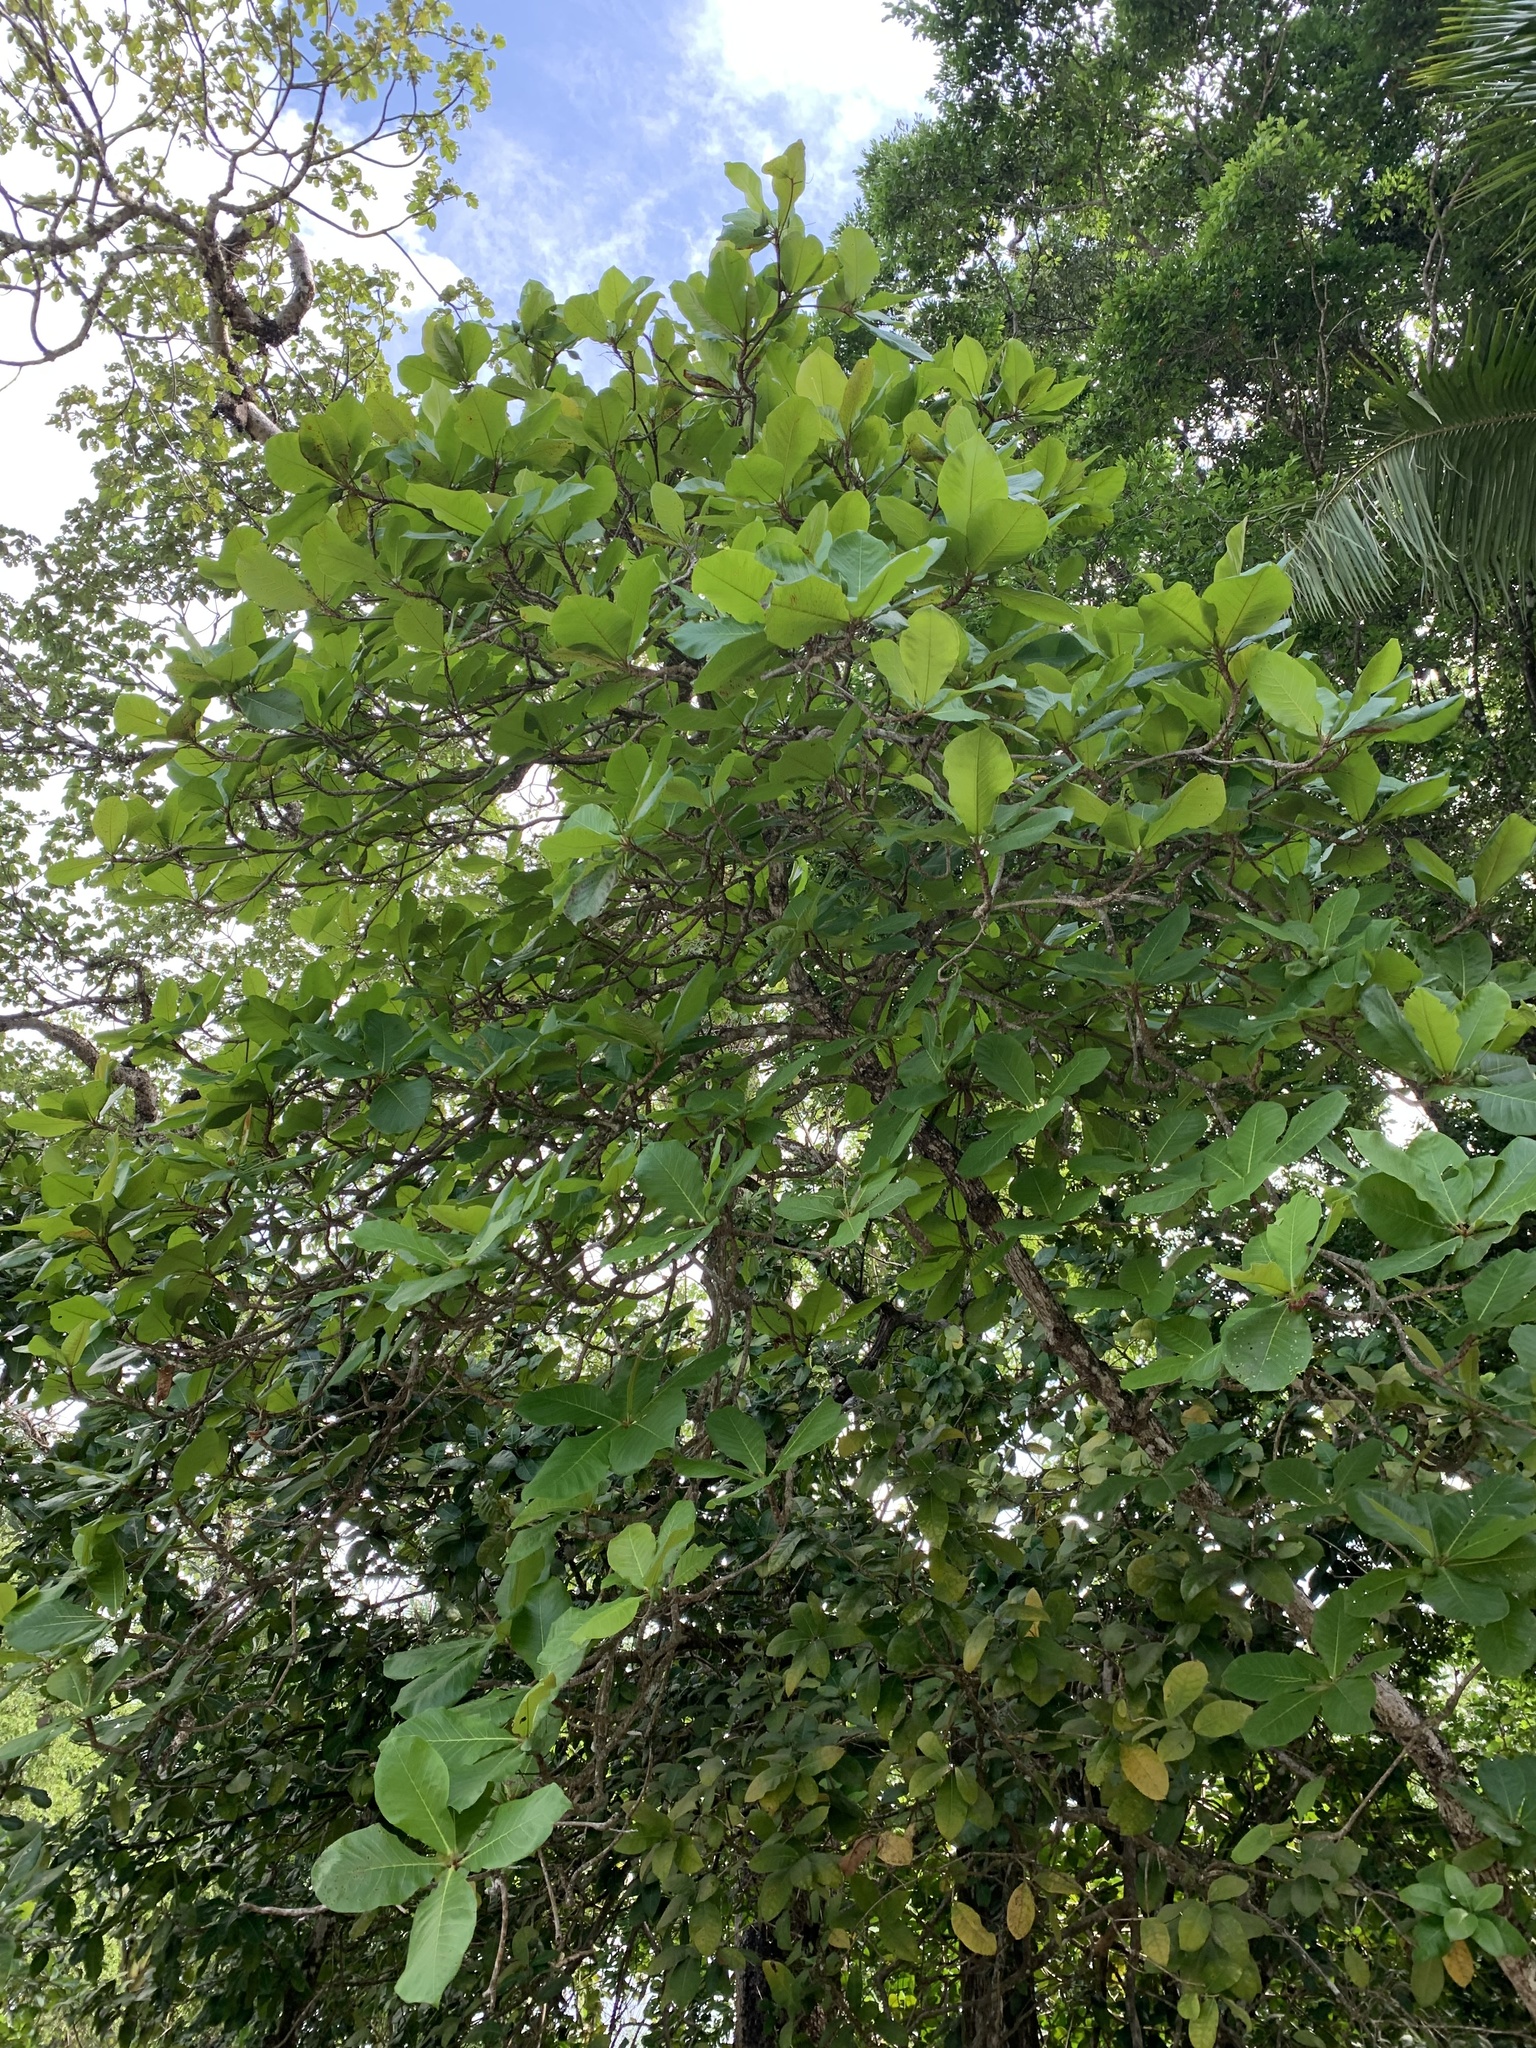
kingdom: Plantae
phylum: Tracheophyta
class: Magnoliopsida
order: Myrtales
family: Combretaceae
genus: Terminalia
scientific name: Terminalia catappa
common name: Tropical almond
